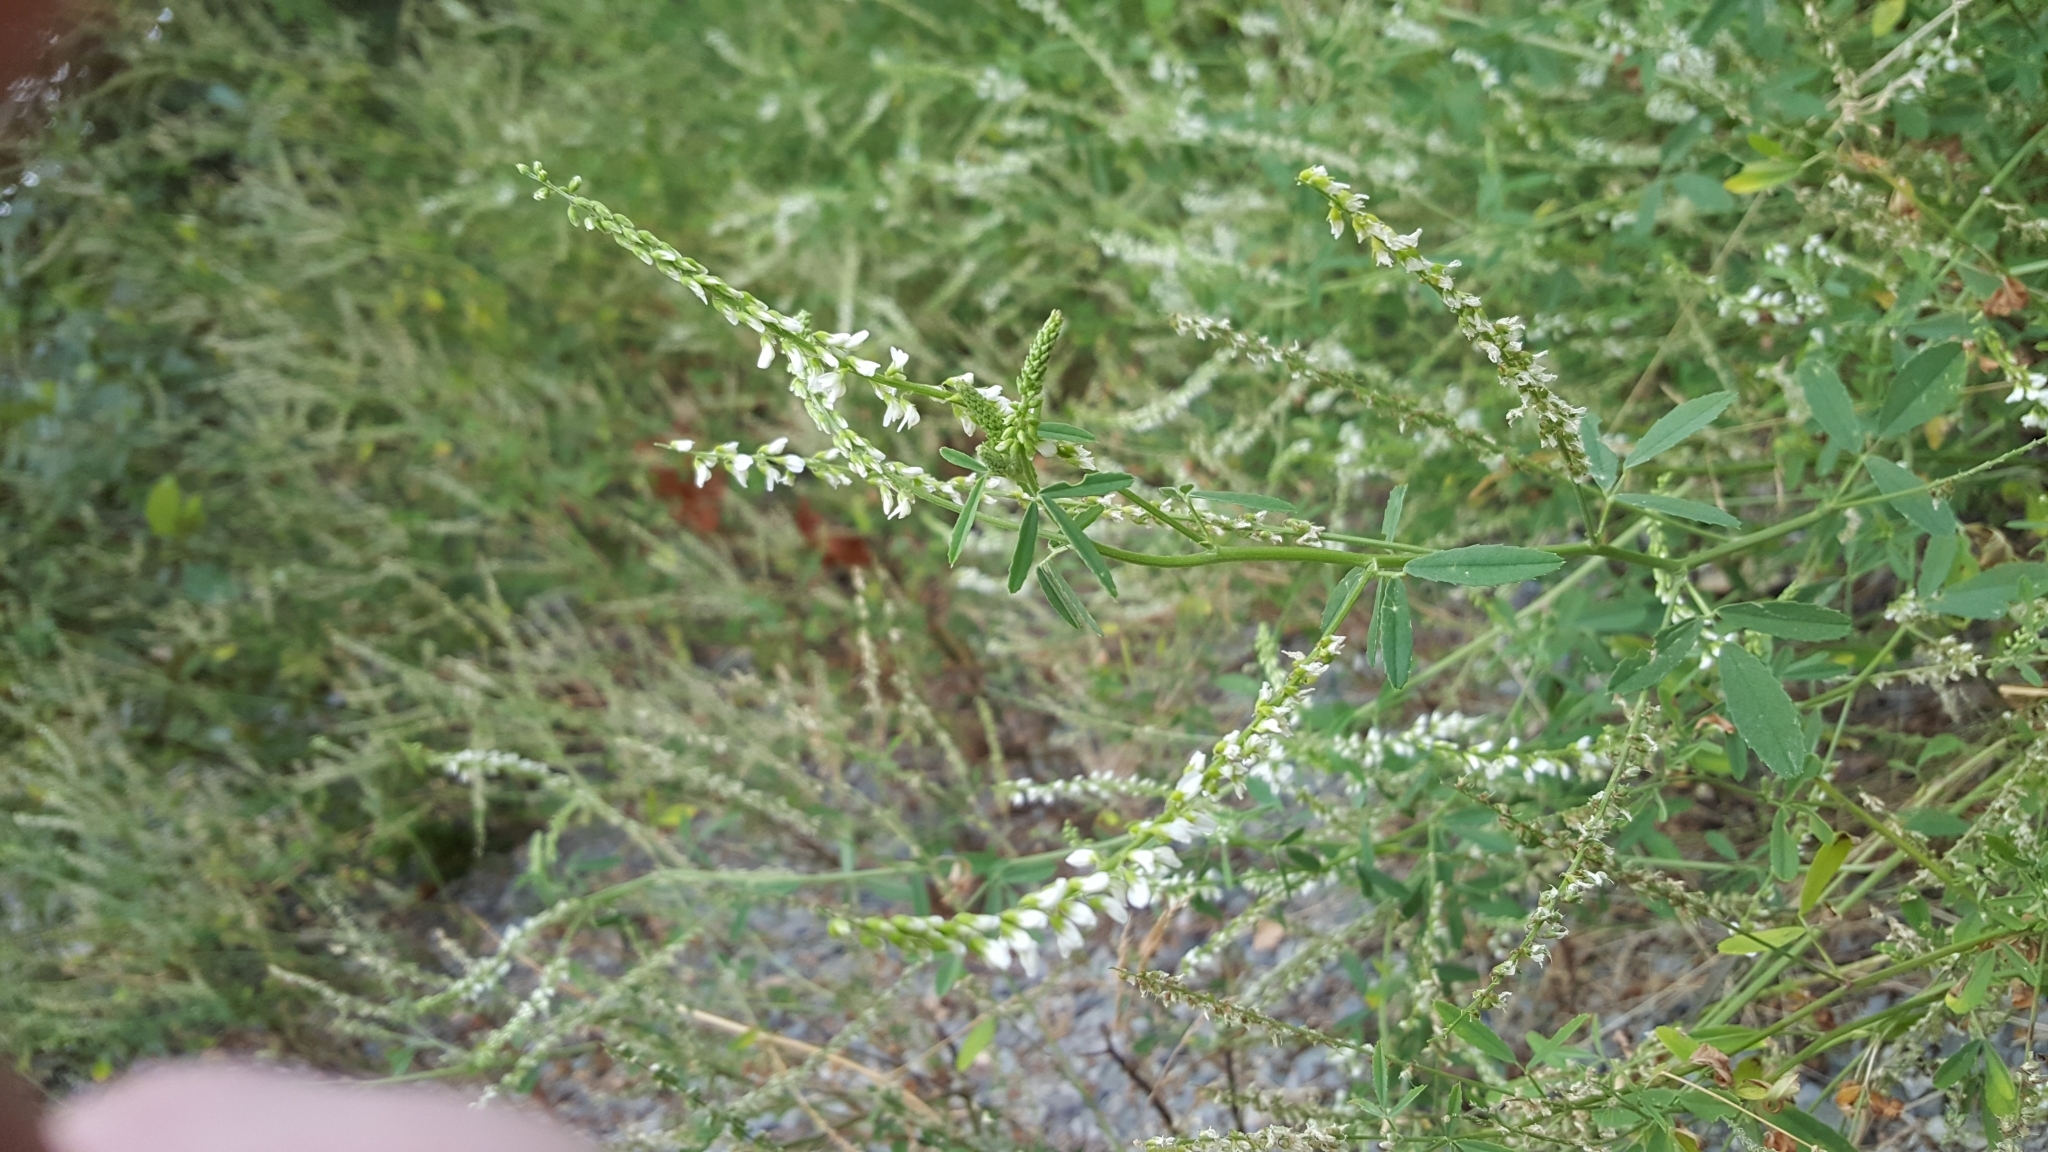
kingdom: Plantae
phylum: Tracheophyta
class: Magnoliopsida
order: Fabales
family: Fabaceae
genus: Melilotus
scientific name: Melilotus albus
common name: White melilot
